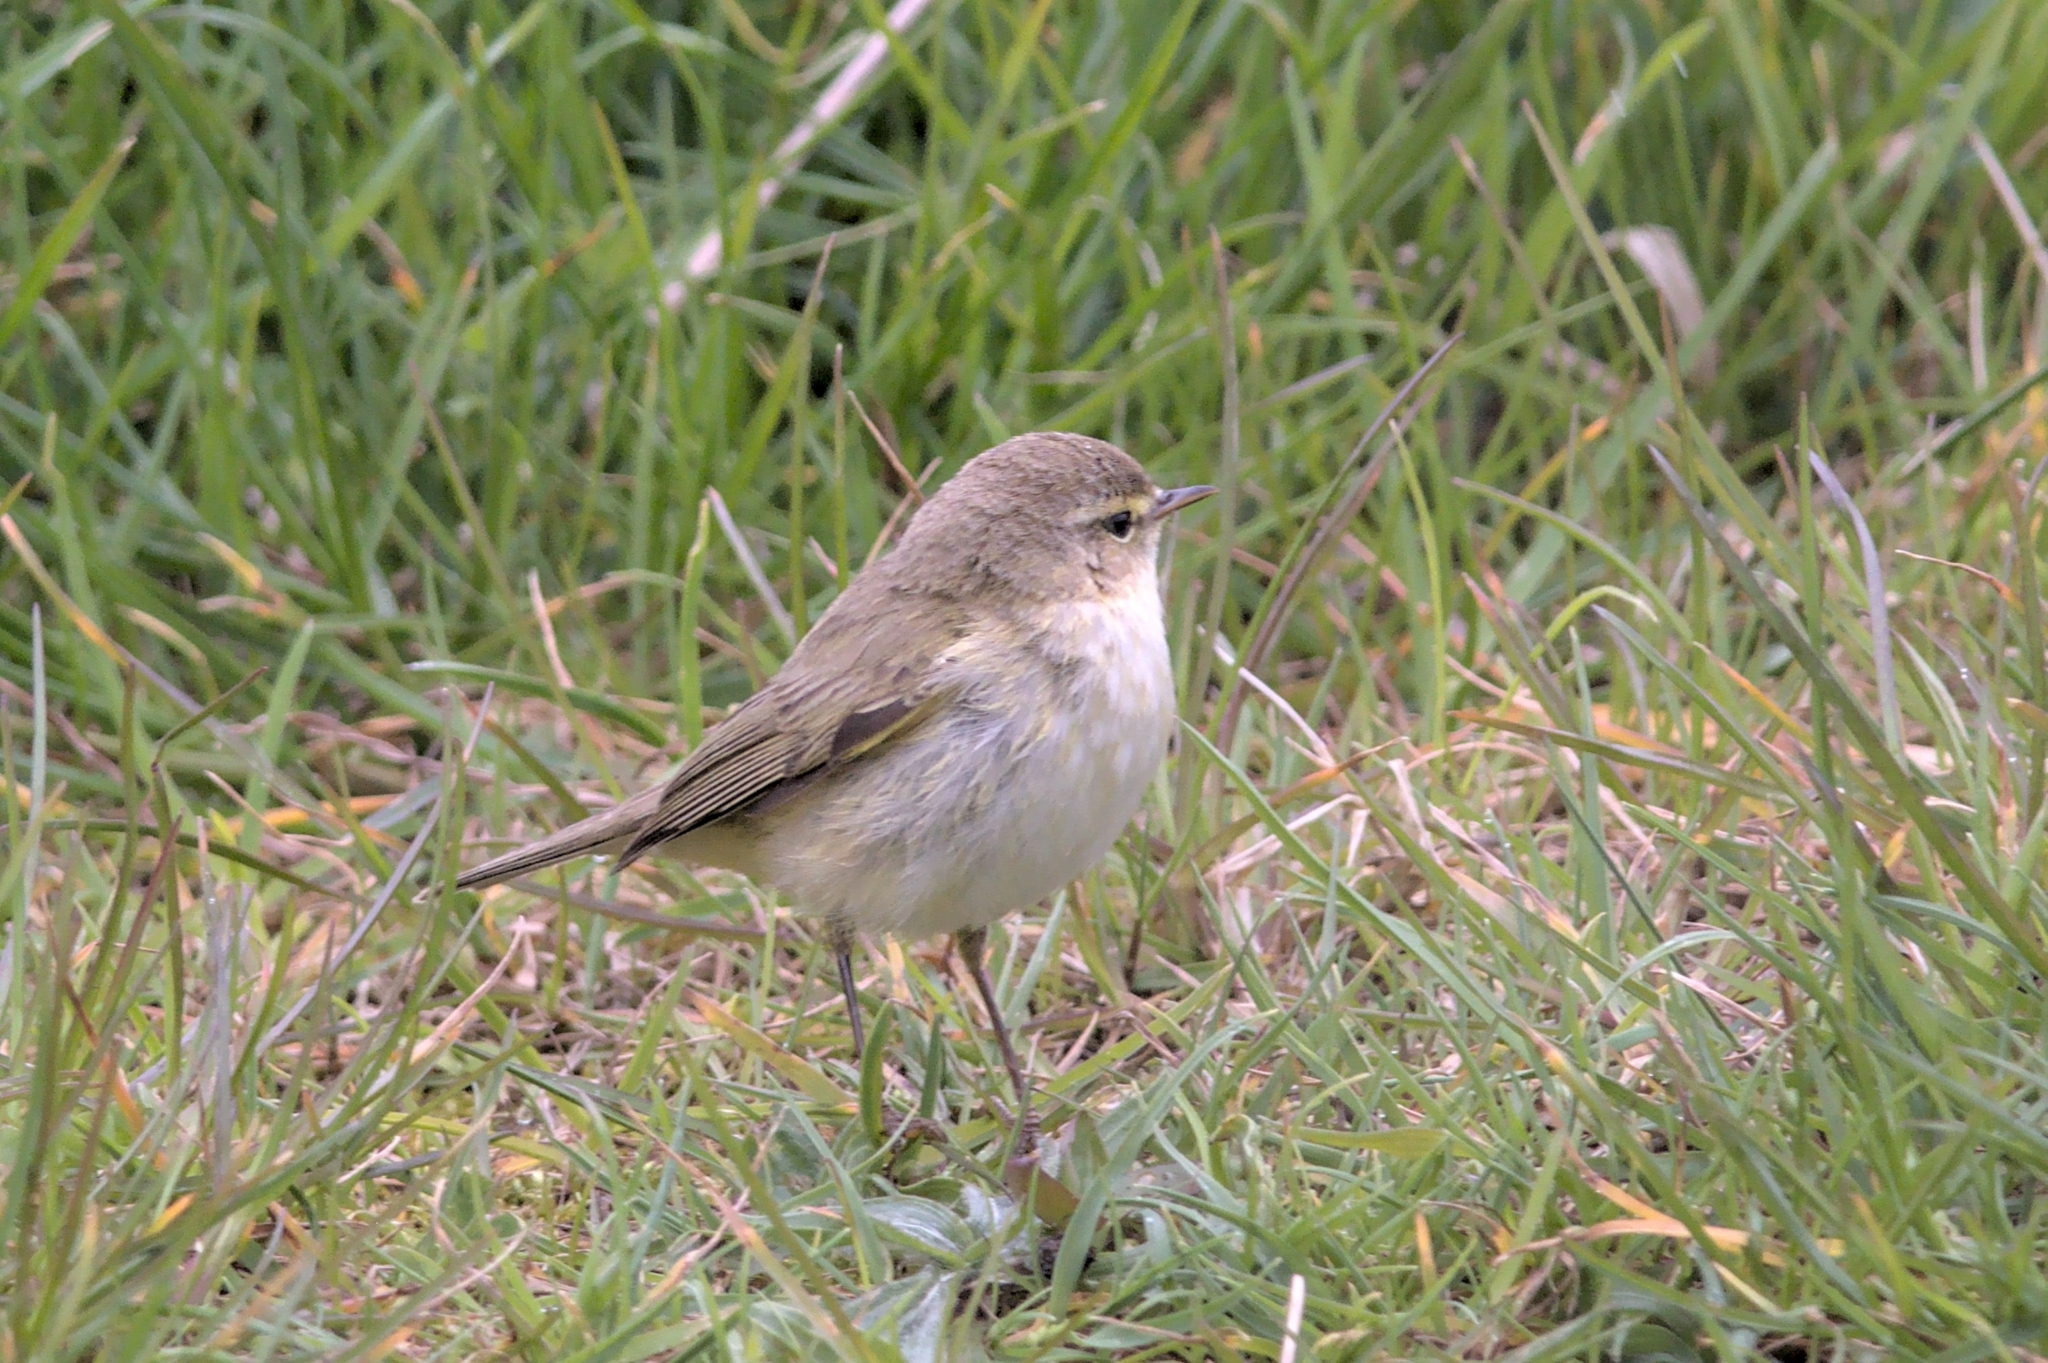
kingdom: Animalia
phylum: Chordata
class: Aves
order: Passeriformes
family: Phylloscopidae
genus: Phylloscopus
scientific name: Phylloscopus collybita
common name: Common chiffchaff
